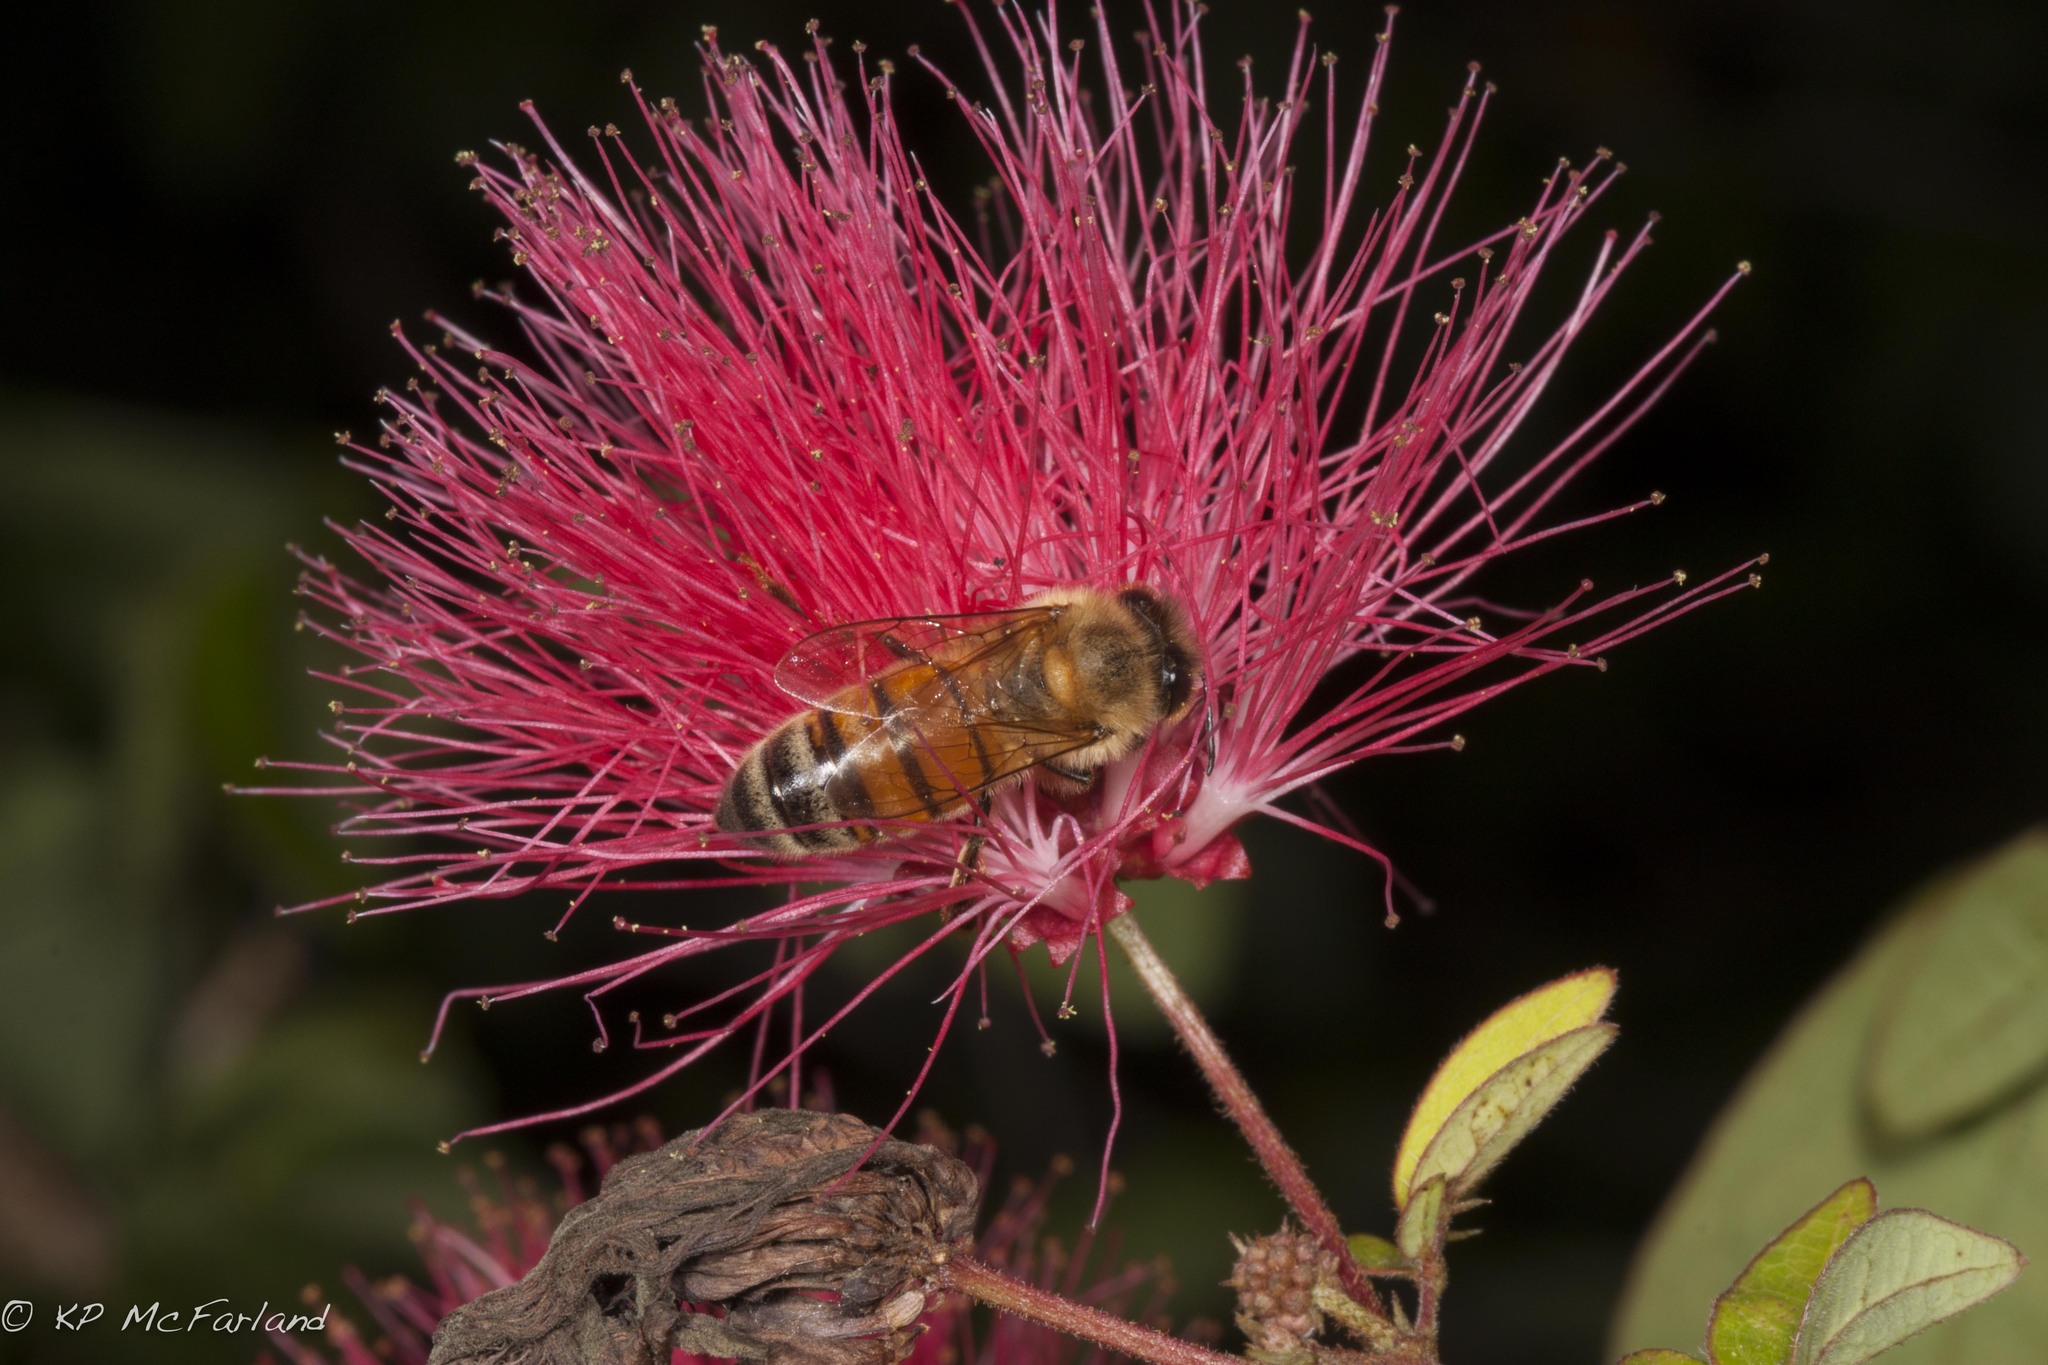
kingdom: Animalia
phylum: Arthropoda
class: Insecta
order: Hymenoptera
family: Apidae
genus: Apis
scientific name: Apis mellifera
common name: Honey bee
